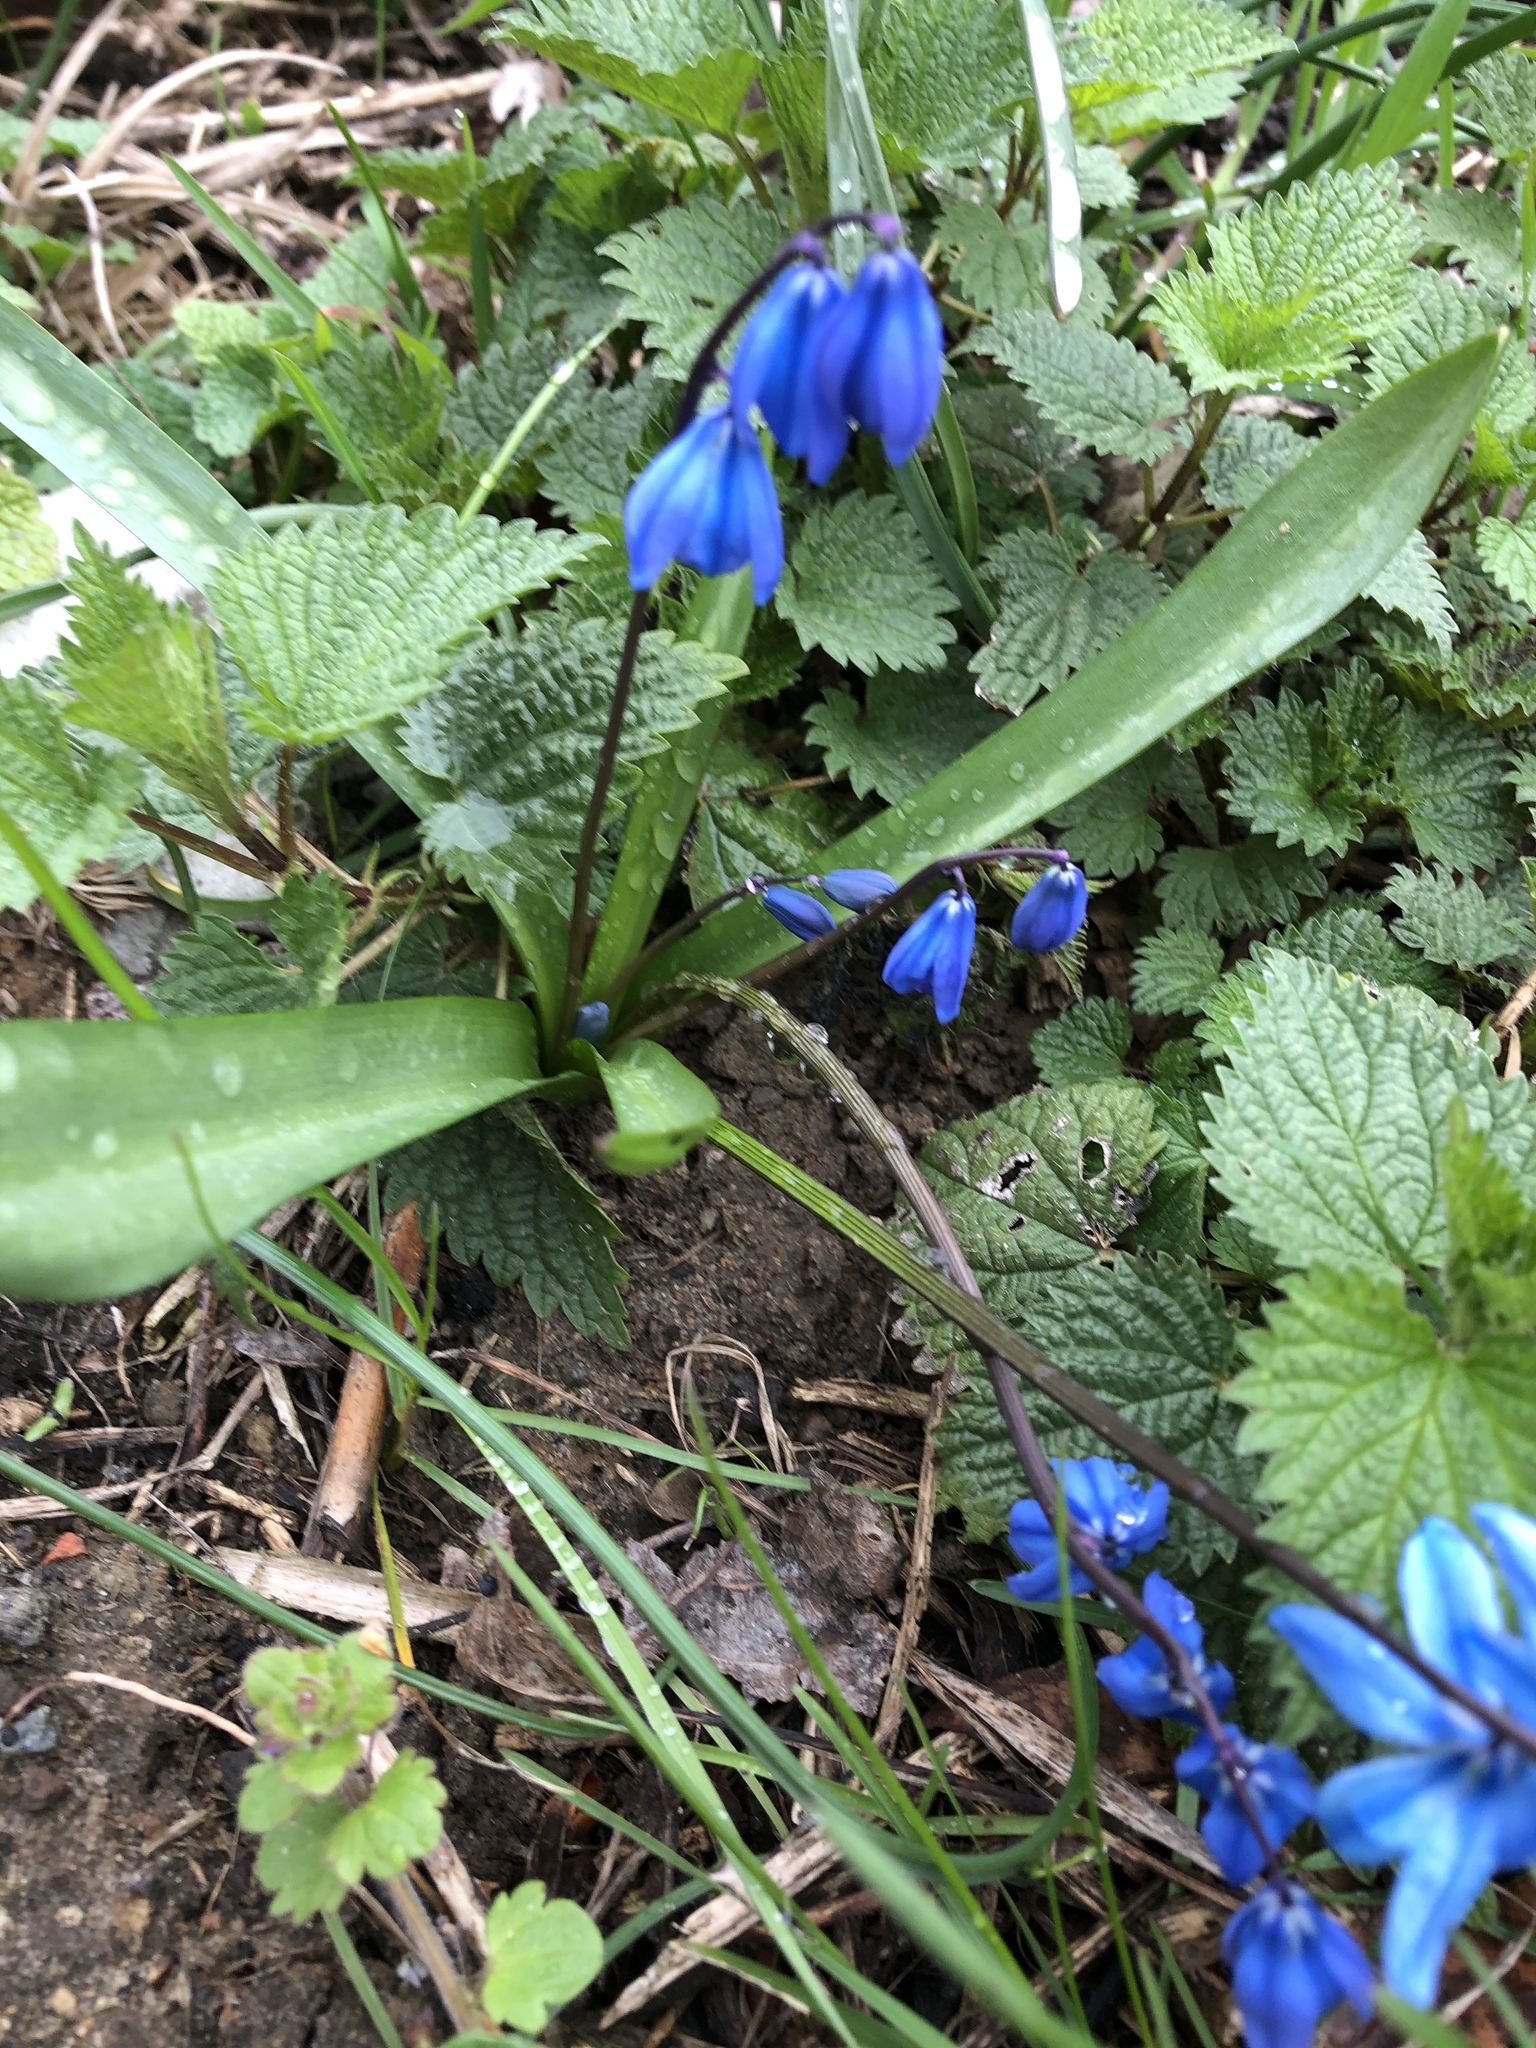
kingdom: Plantae
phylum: Tracheophyta
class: Liliopsida
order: Asparagales
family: Asparagaceae
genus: Scilla
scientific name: Scilla siberica
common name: Siberian squill
